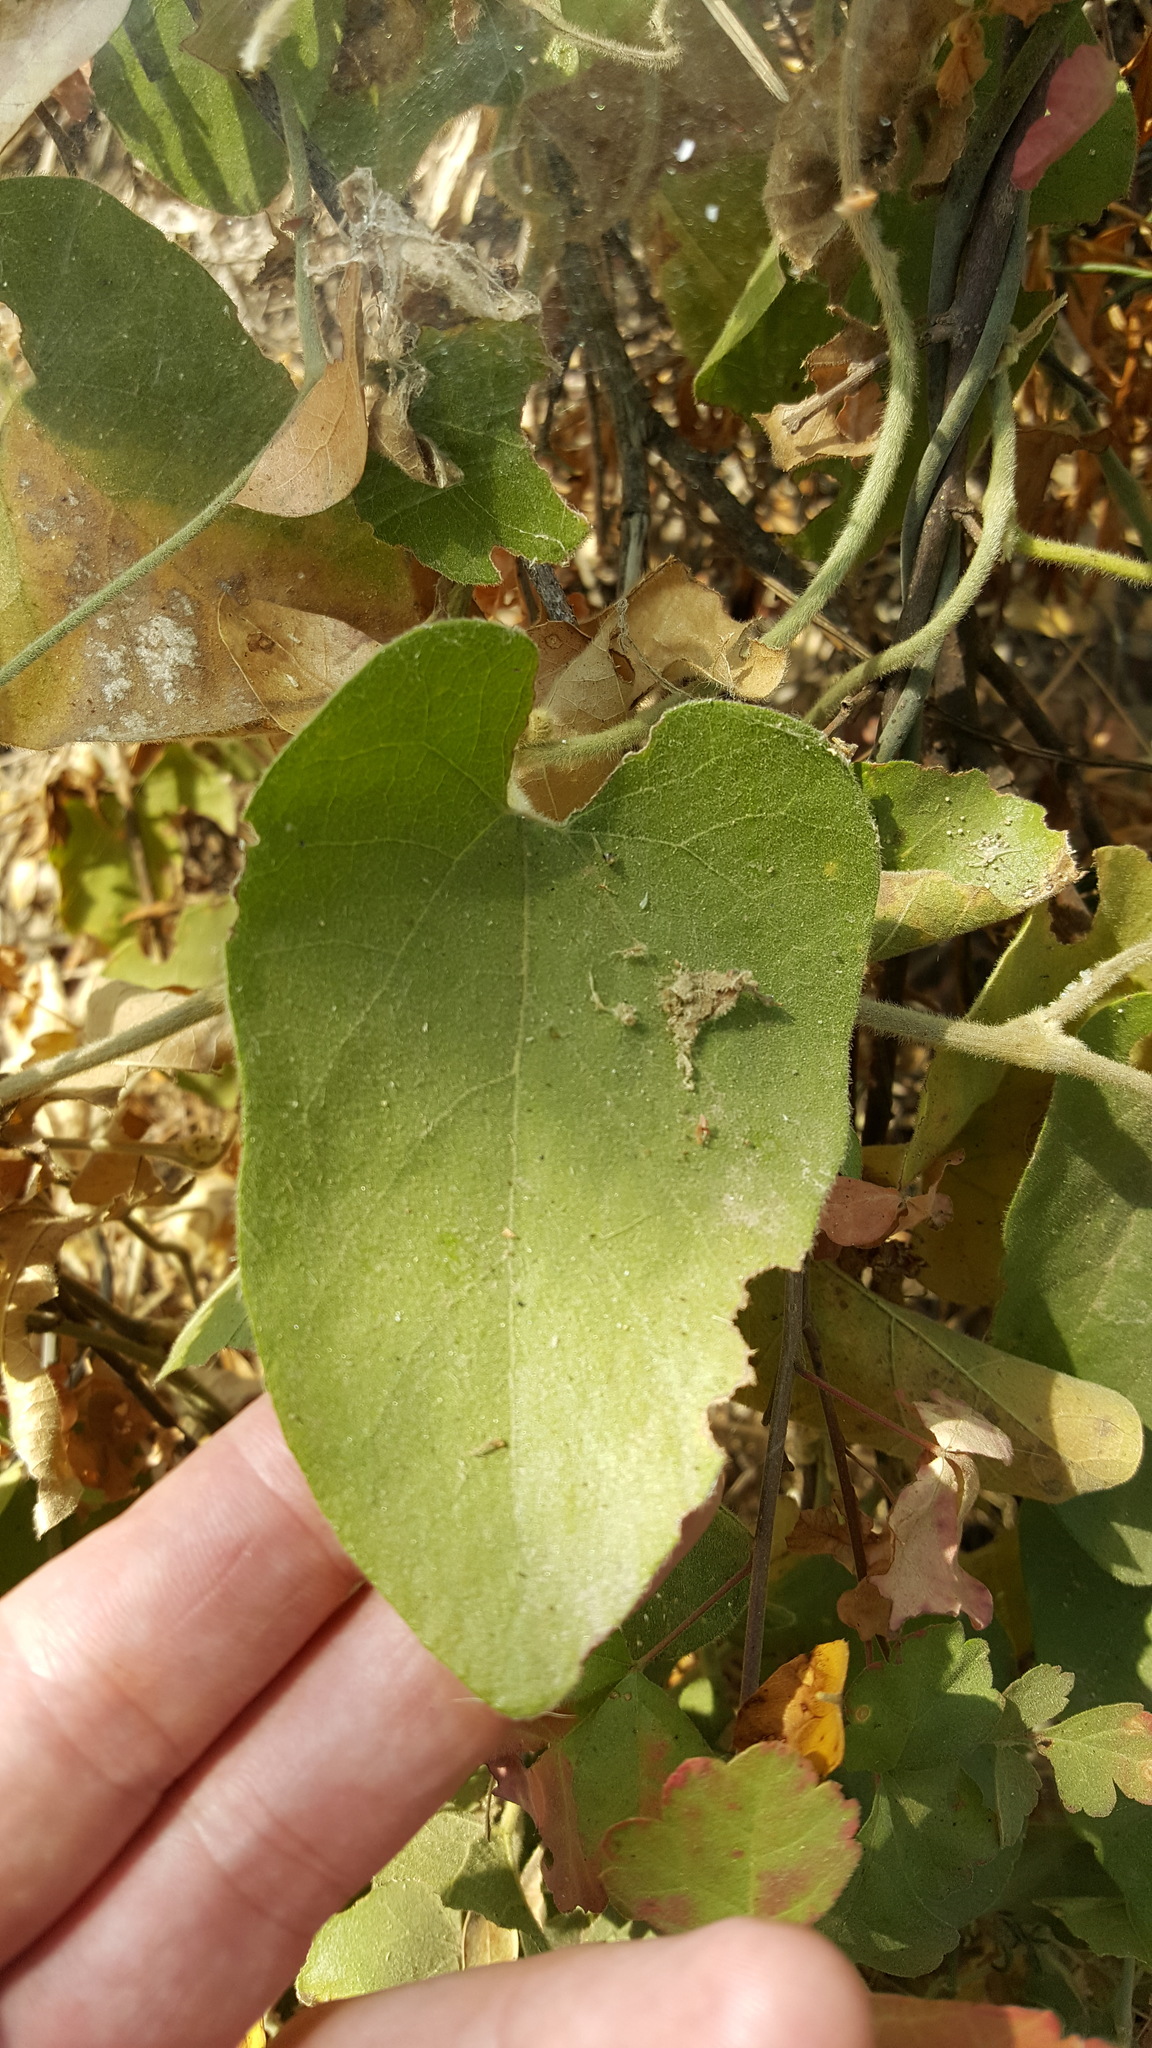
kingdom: Plantae
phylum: Tracheophyta
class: Magnoliopsida
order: Piperales
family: Aristolochiaceae
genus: Isotrema
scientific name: Isotrema californicum
